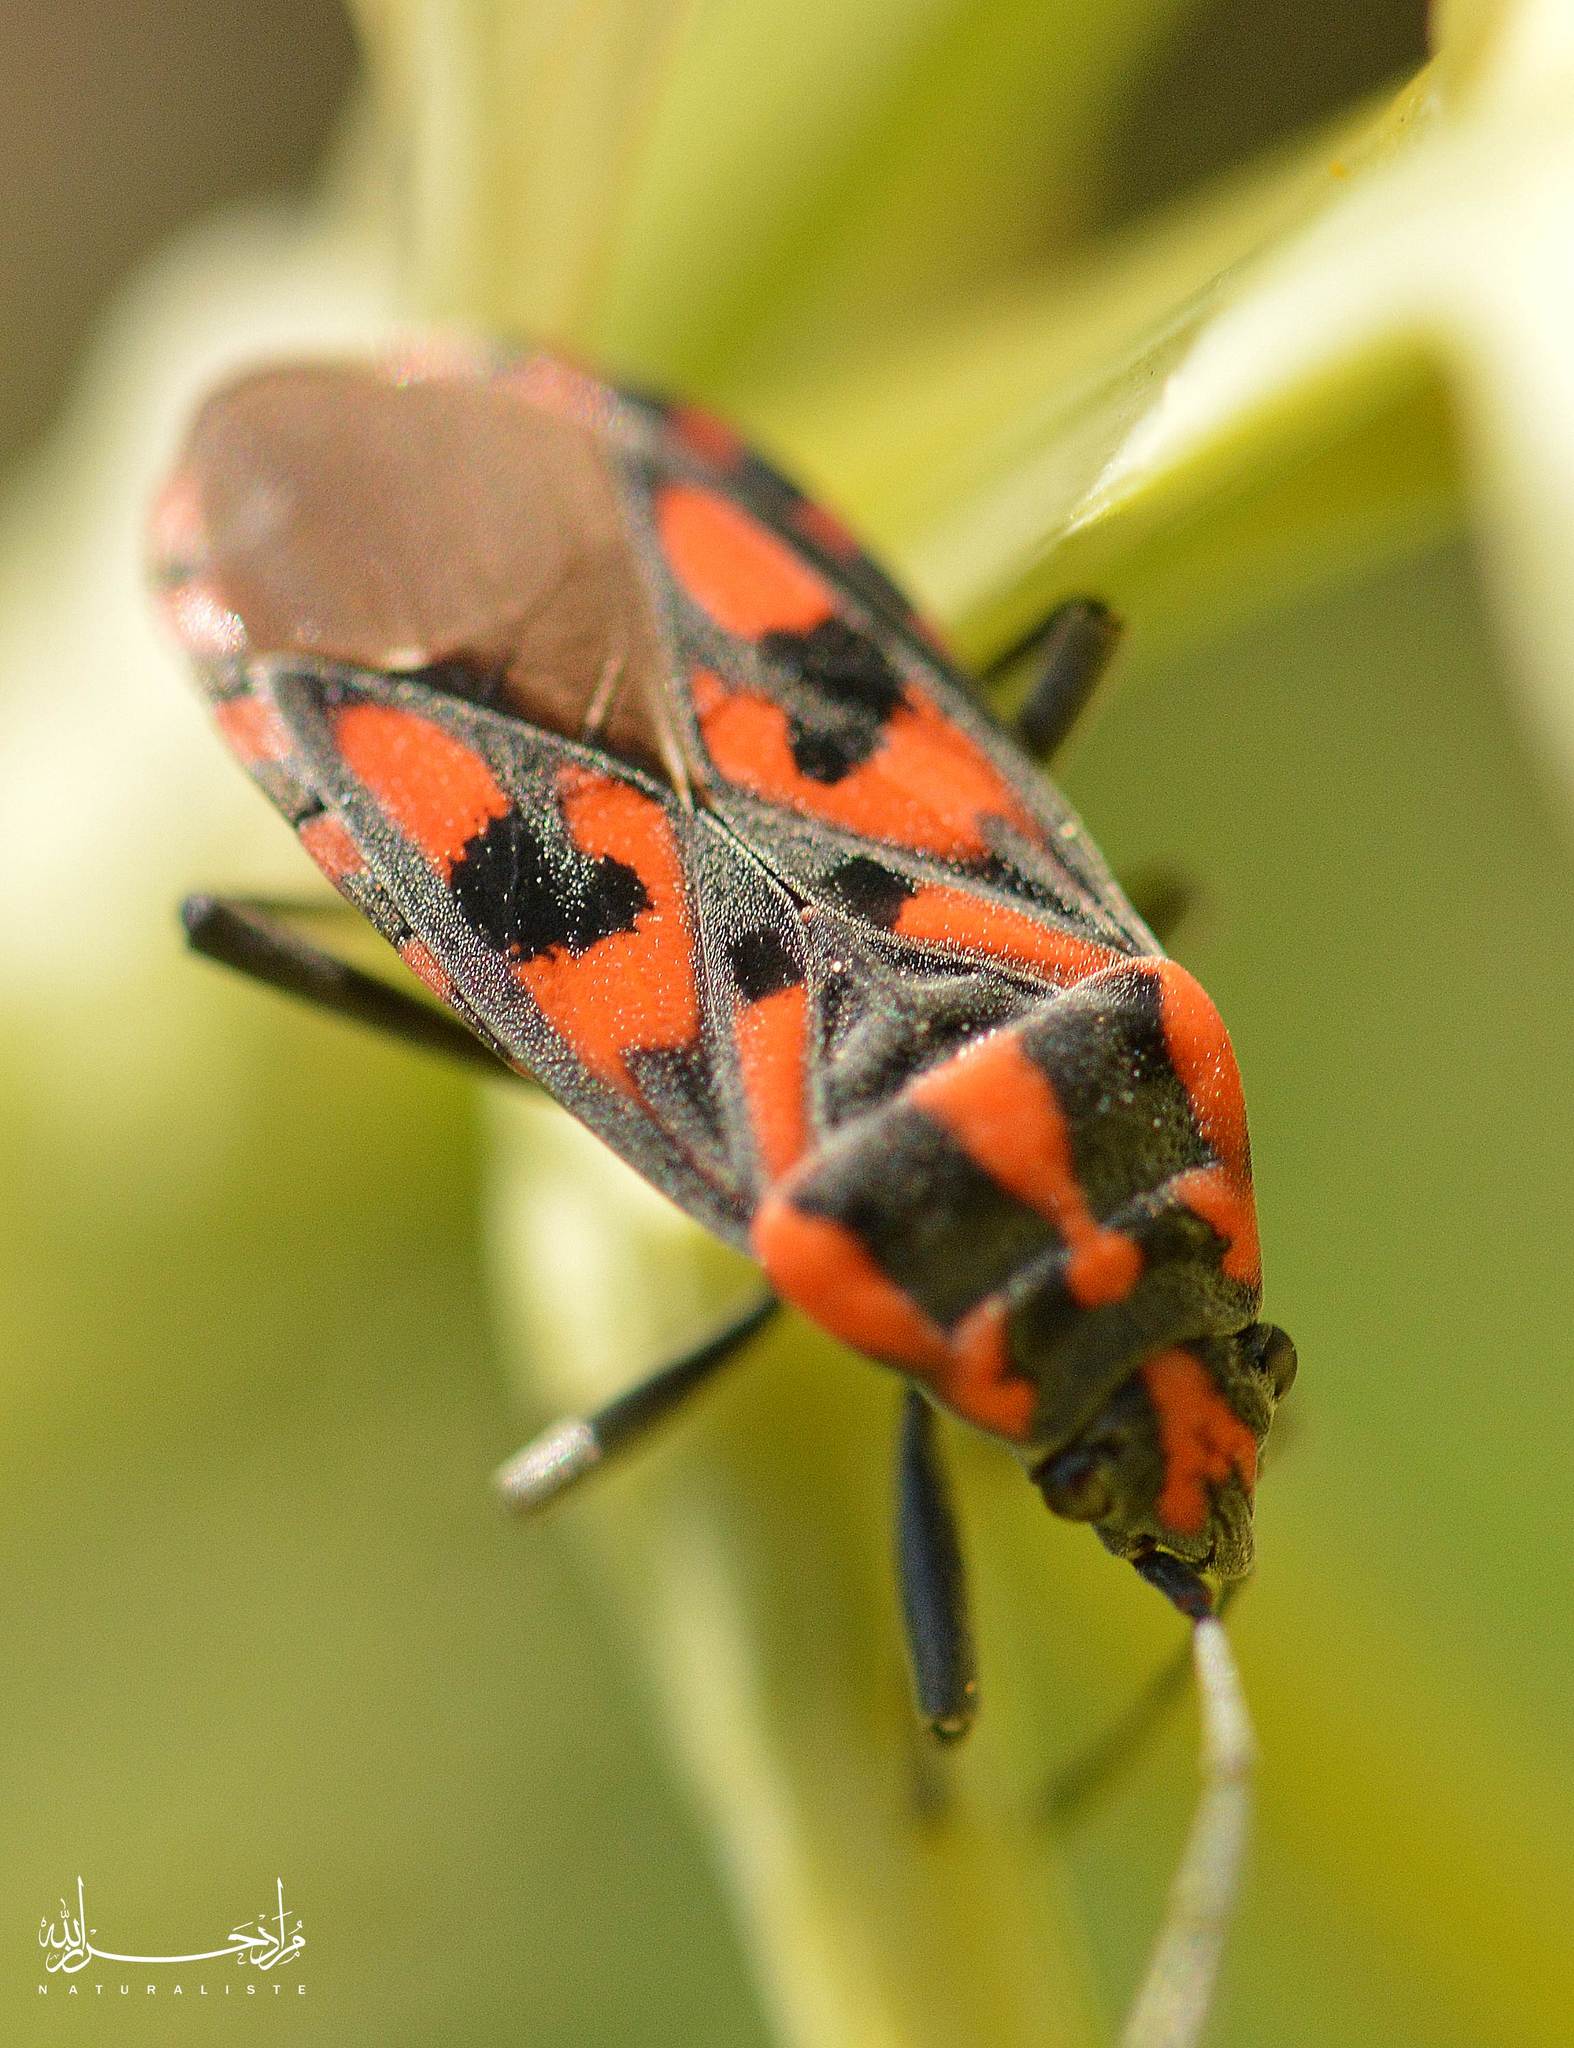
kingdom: Animalia
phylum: Arthropoda
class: Insecta
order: Hemiptera
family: Lygaeidae
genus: Spilostethus
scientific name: Spilostethus saxatilis
